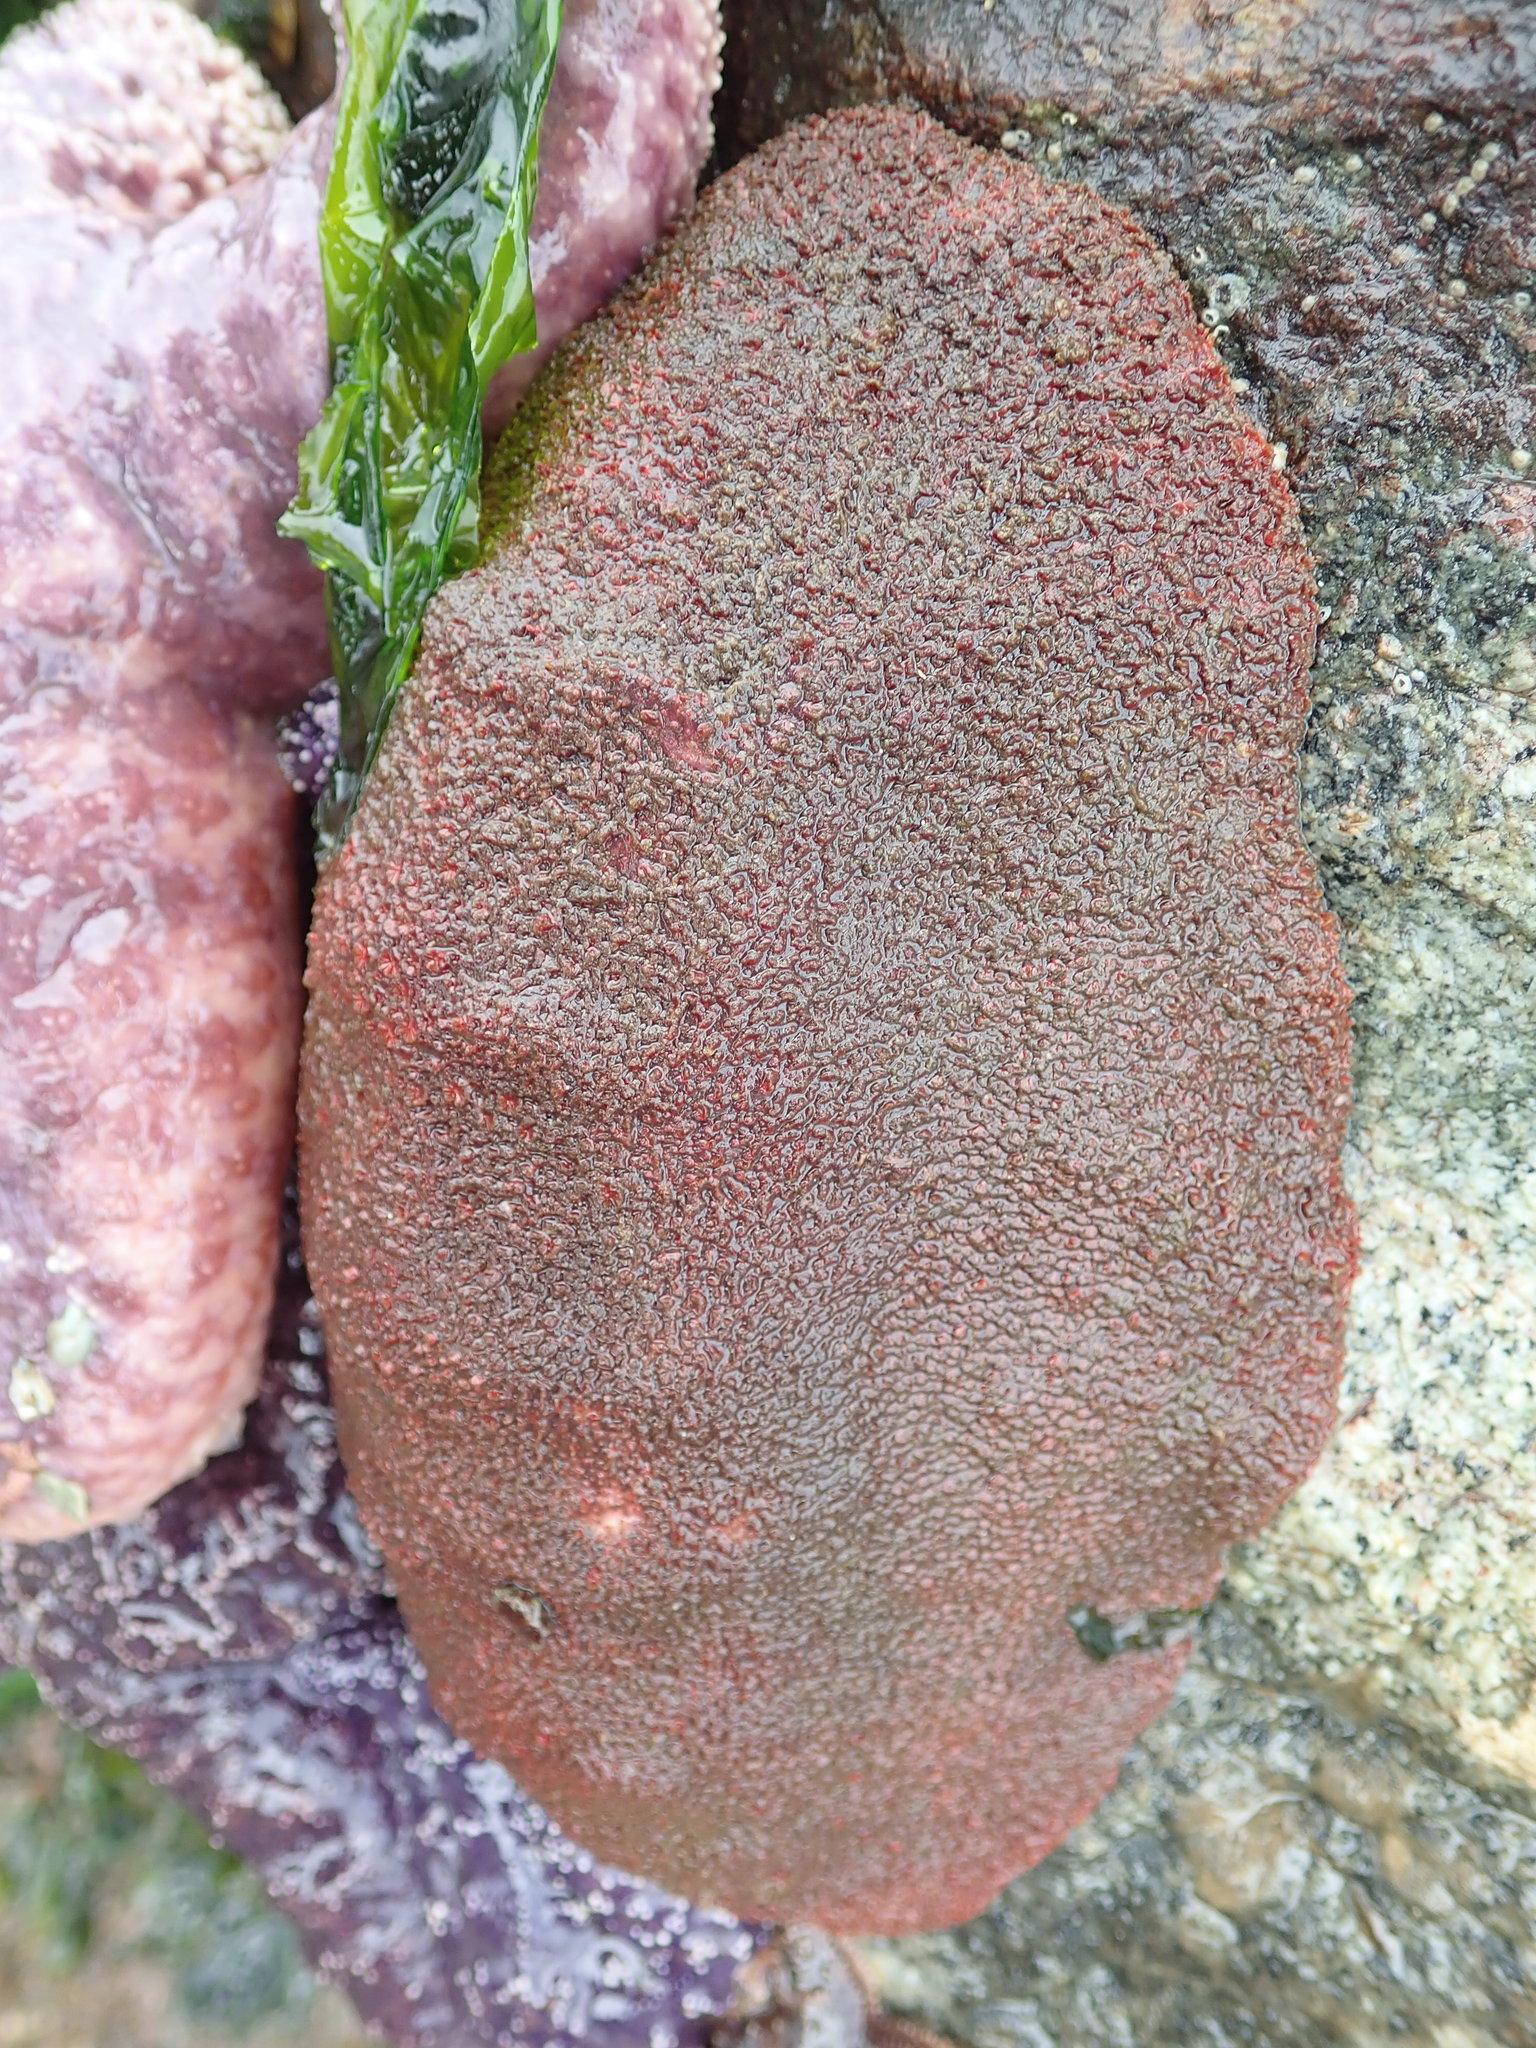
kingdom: Animalia
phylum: Mollusca
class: Polyplacophora
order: Chitonida
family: Acanthochitonidae
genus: Cryptochiton
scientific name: Cryptochiton stelleri
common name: Giant pacific chiton
